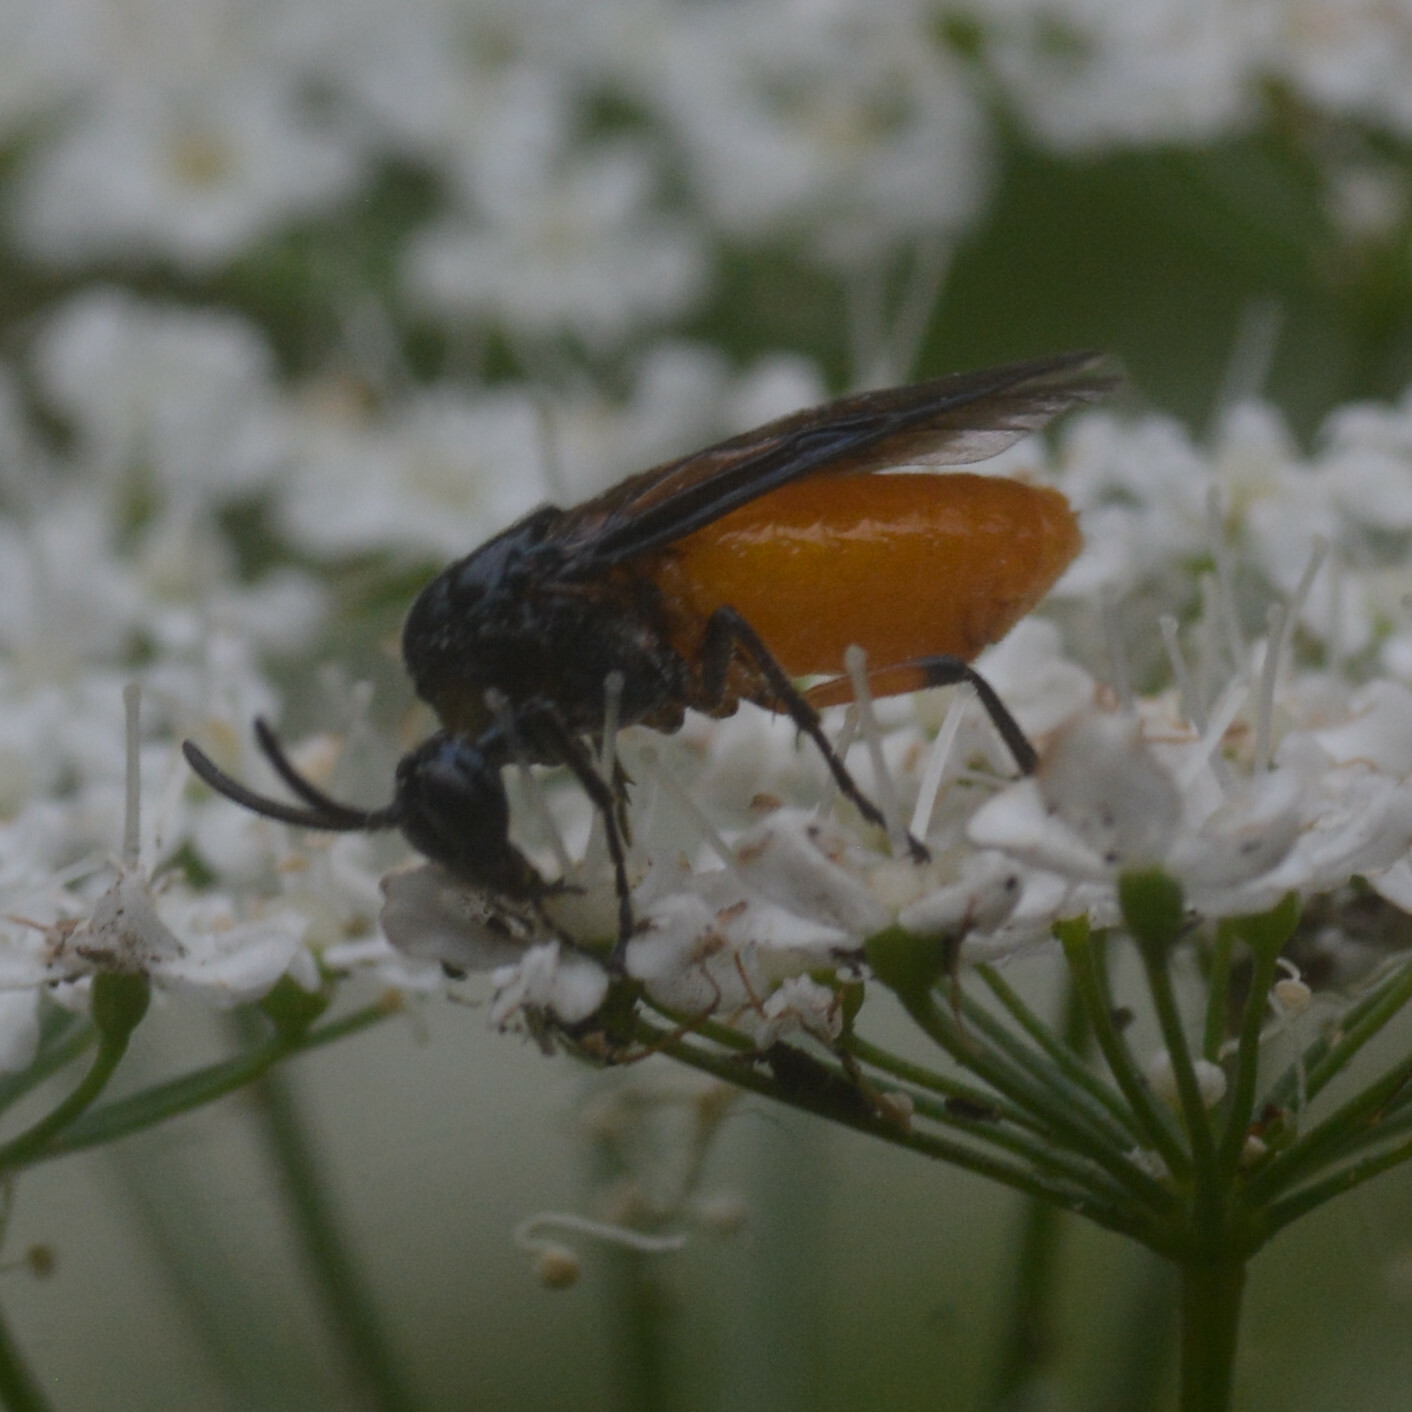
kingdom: Animalia
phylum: Arthropoda
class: Insecta
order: Hymenoptera
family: Argidae
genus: Arge
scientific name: Arge pagana
